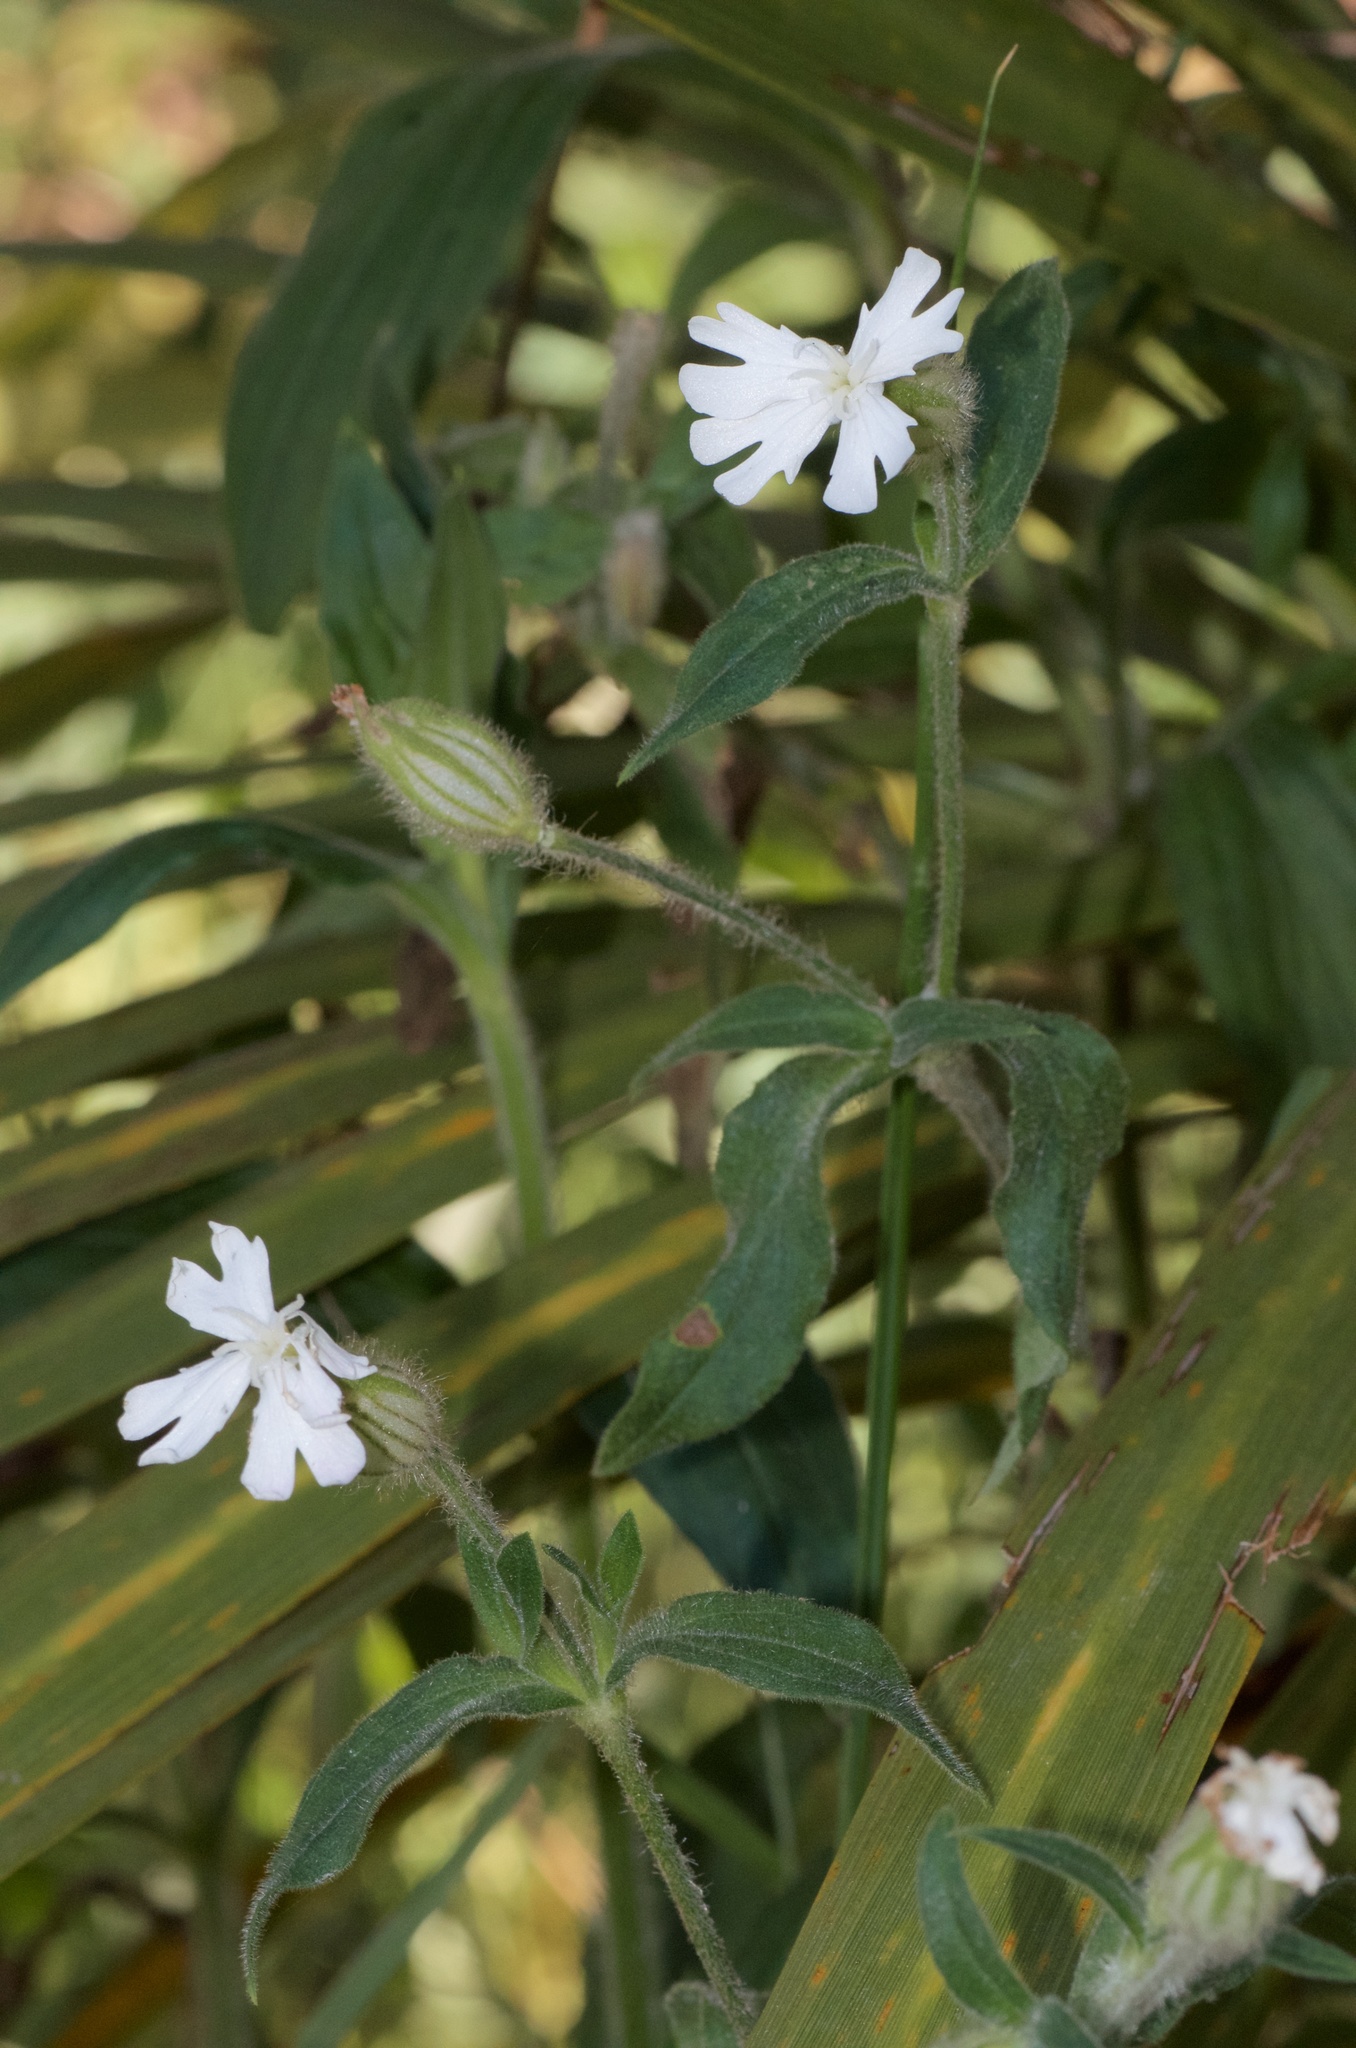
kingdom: Plantae
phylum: Tracheophyta
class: Magnoliopsida
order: Caryophyllales
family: Caryophyllaceae
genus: Silene
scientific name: Silene latifolia
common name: White campion
